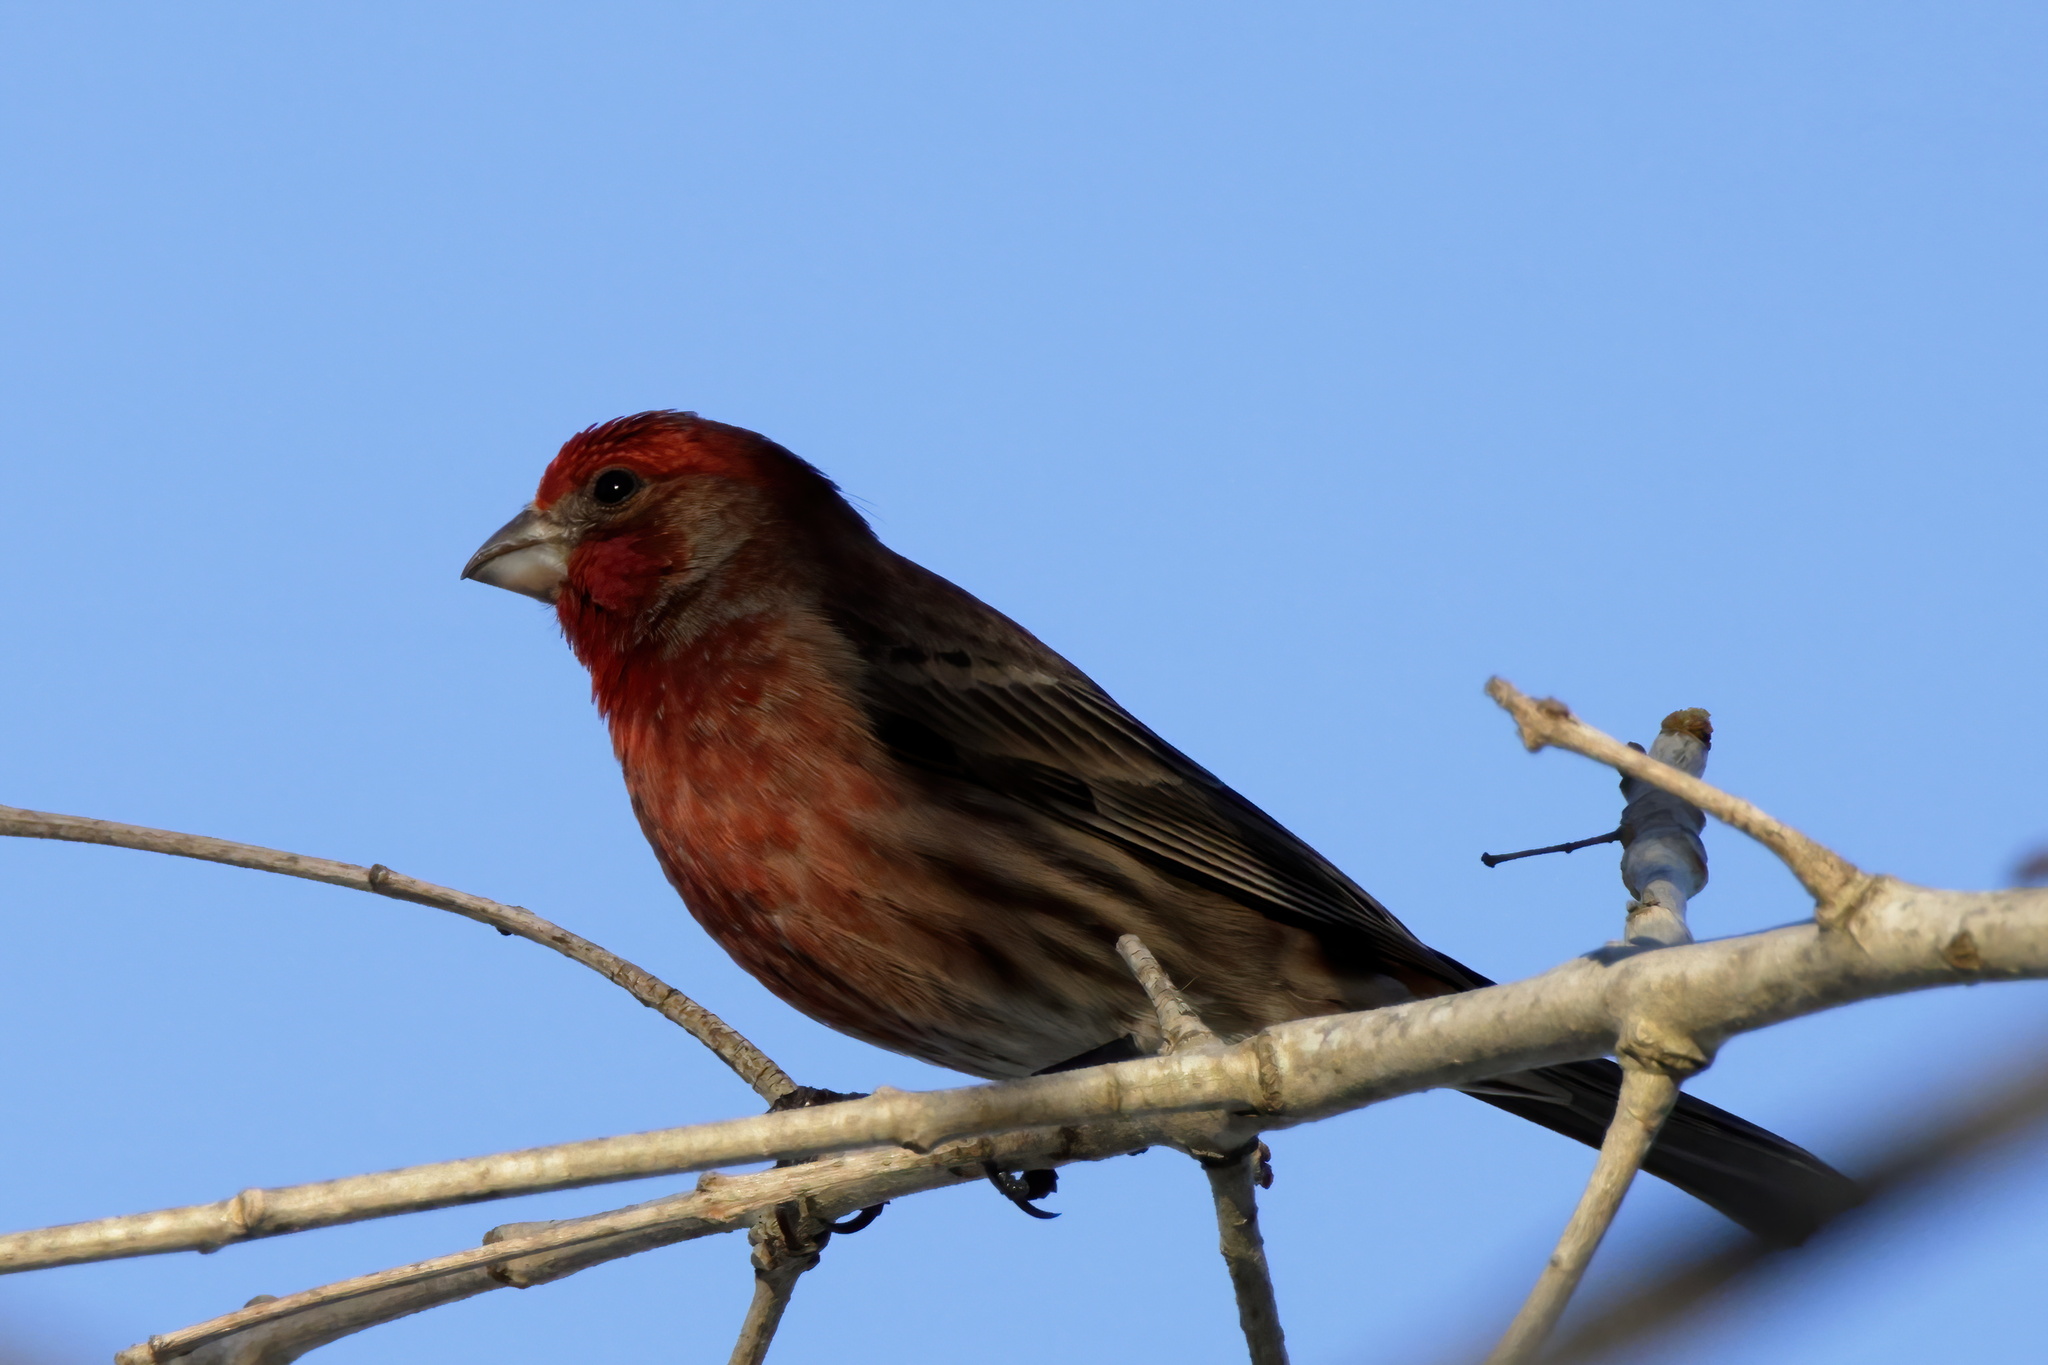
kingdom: Animalia
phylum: Chordata
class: Aves
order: Passeriformes
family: Fringillidae
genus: Haemorhous
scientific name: Haemorhous mexicanus
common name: House finch
